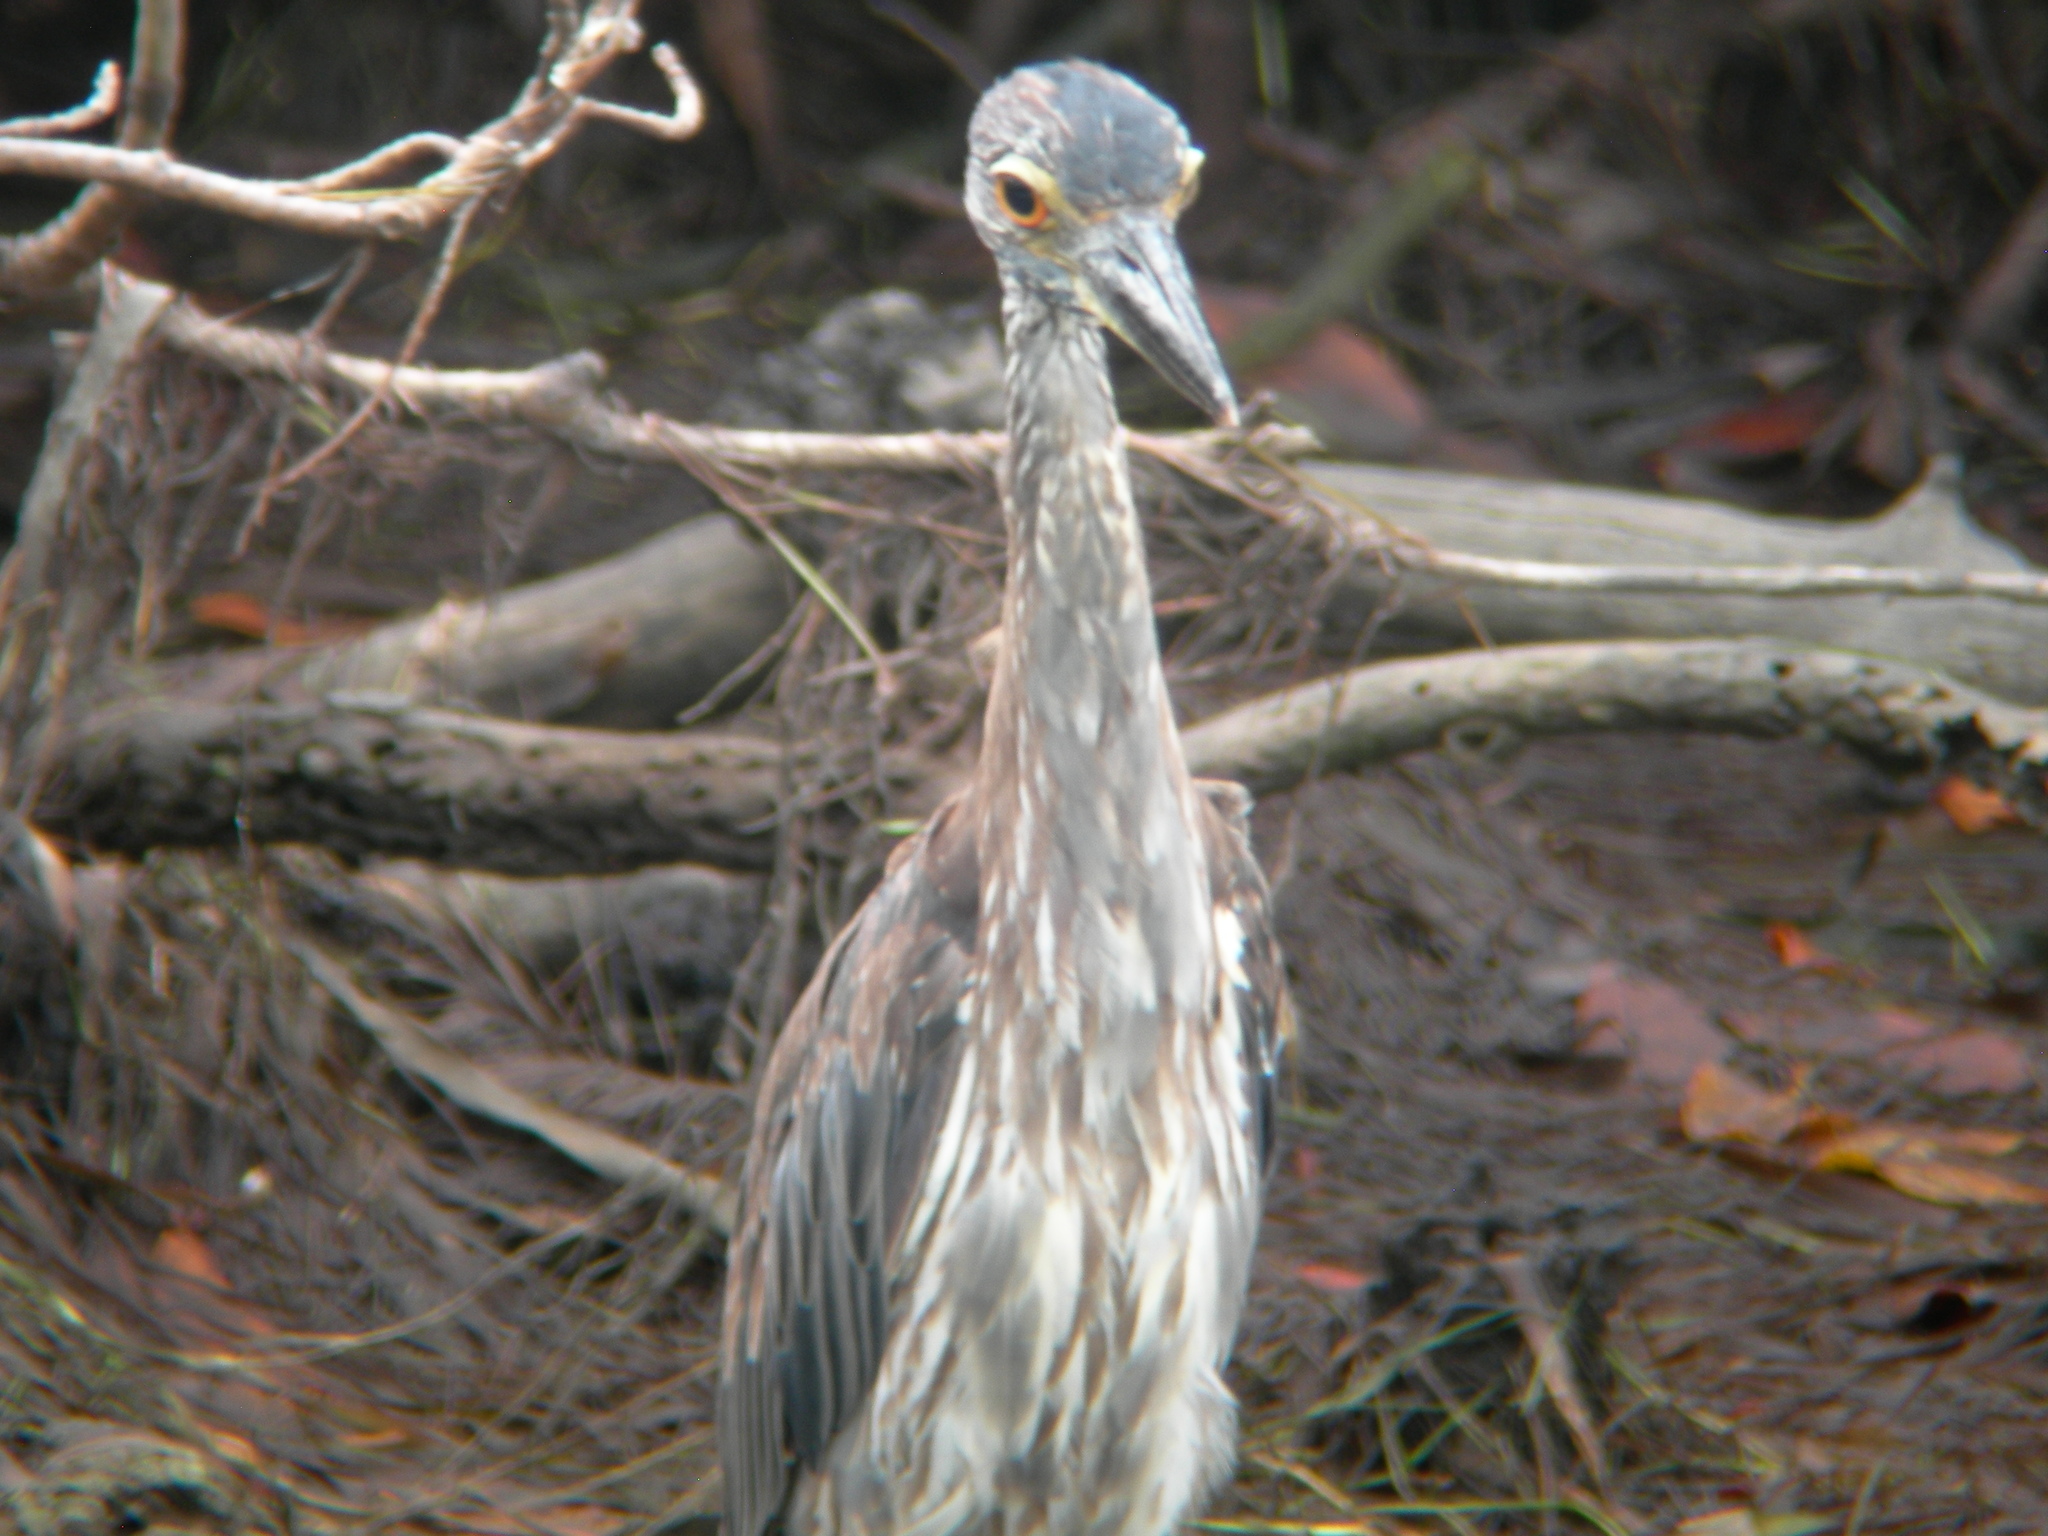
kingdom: Animalia
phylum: Chordata
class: Aves
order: Pelecaniformes
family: Ardeidae
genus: Nyctanassa
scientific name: Nyctanassa violacea
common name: Yellow-crowned night heron
